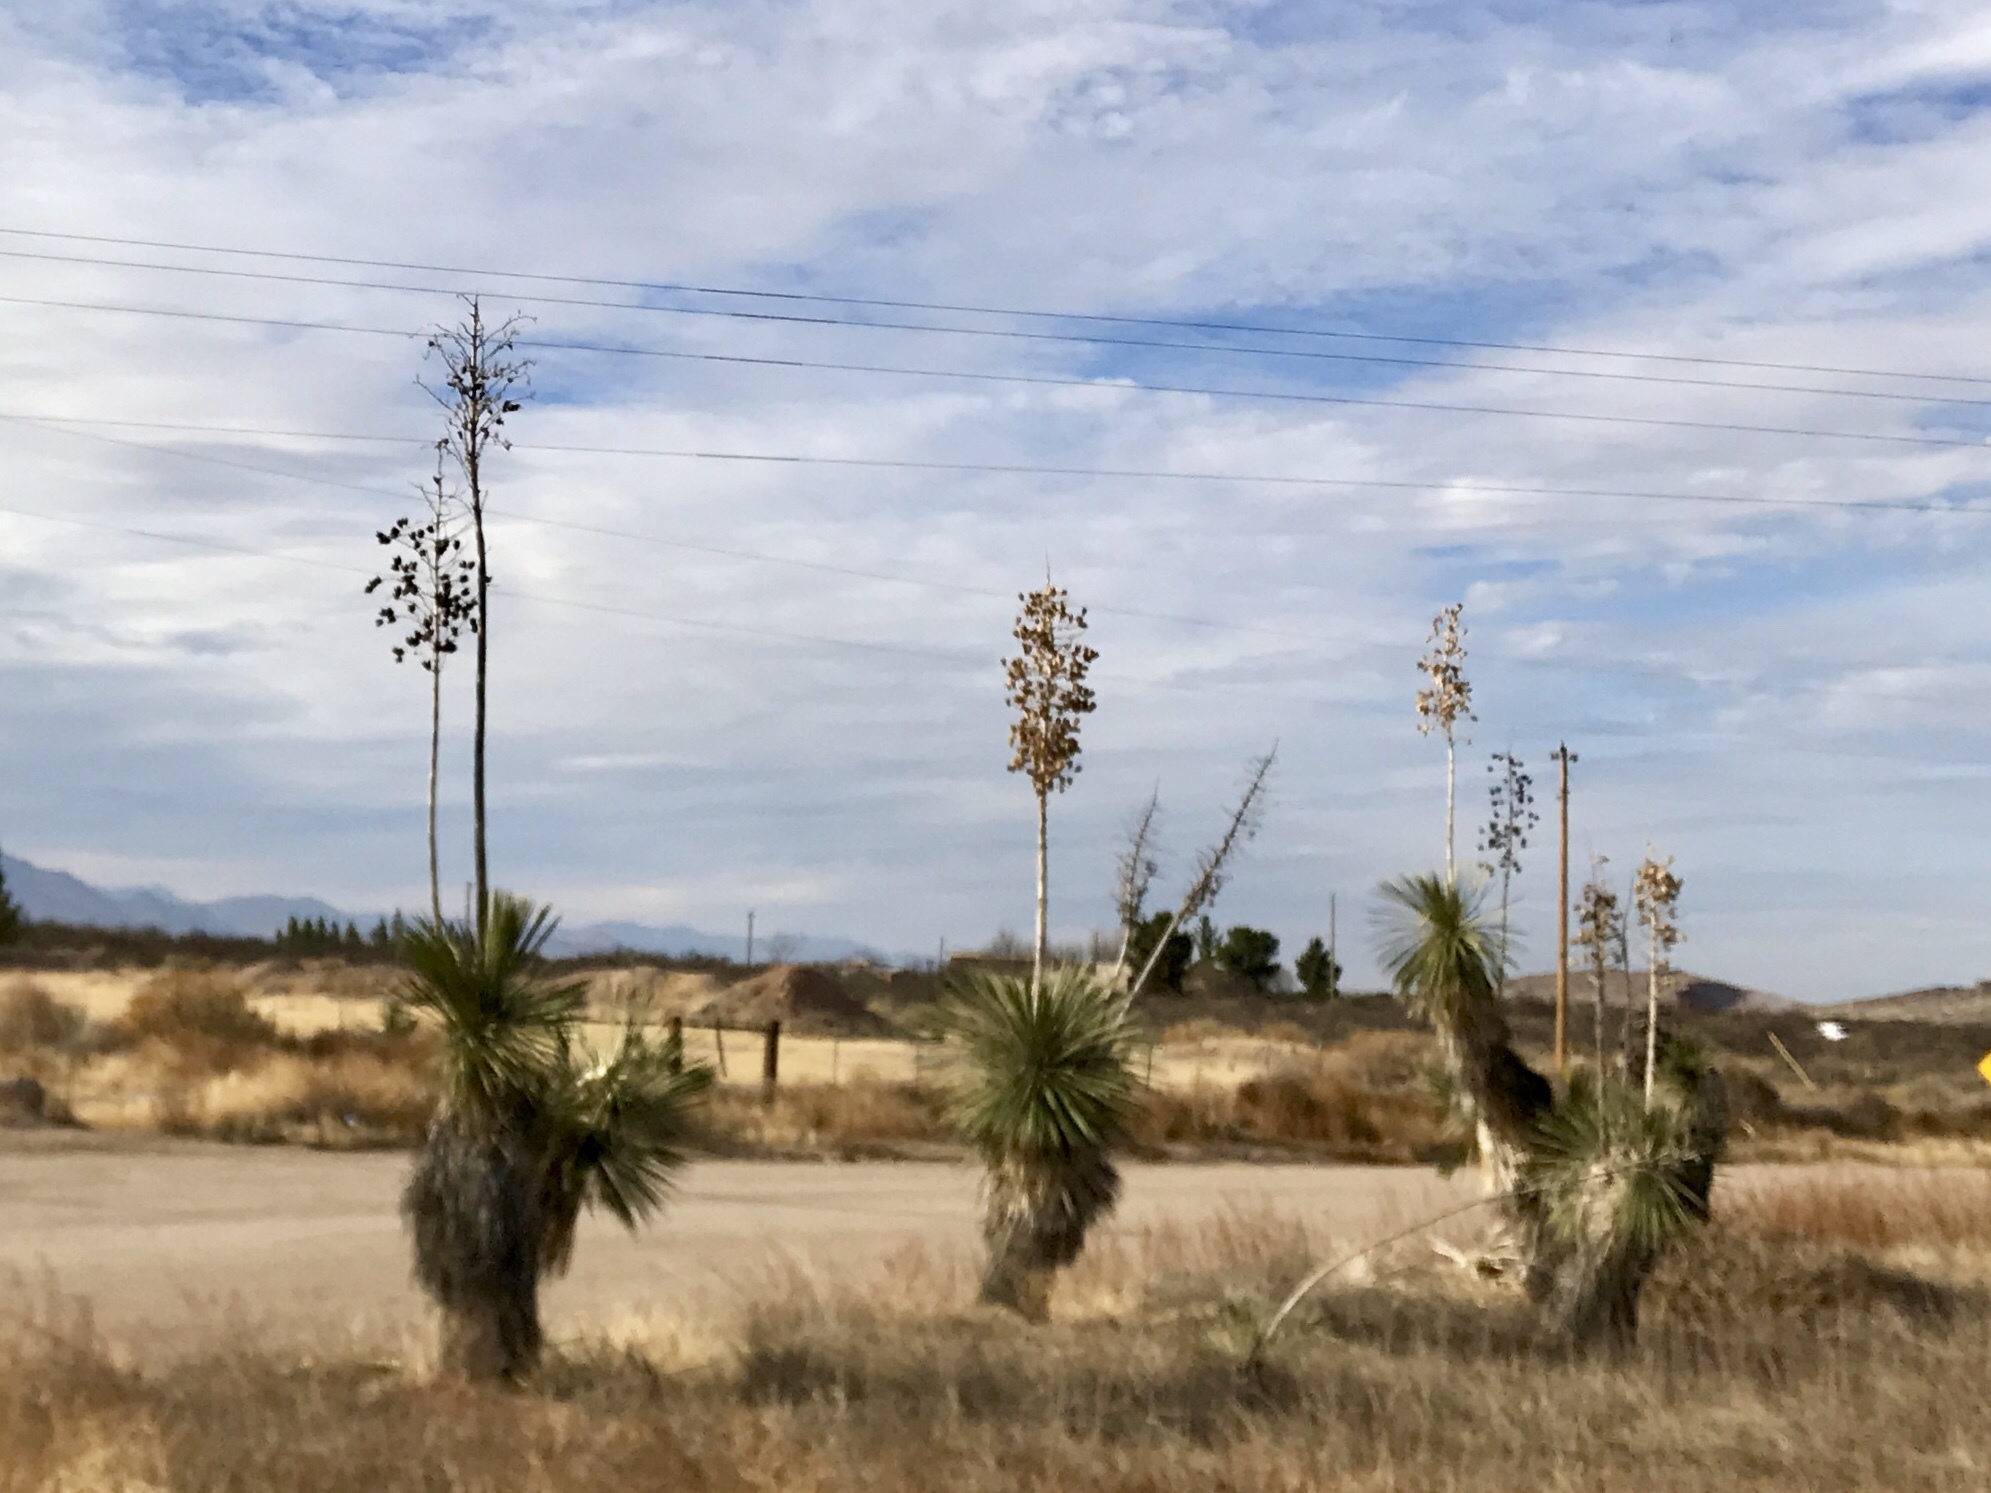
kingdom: Plantae
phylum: Tracheophyta
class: Liliopsida
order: Asparagales
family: Asparagaceae
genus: Yucca
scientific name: Yucca elata
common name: Palmella
